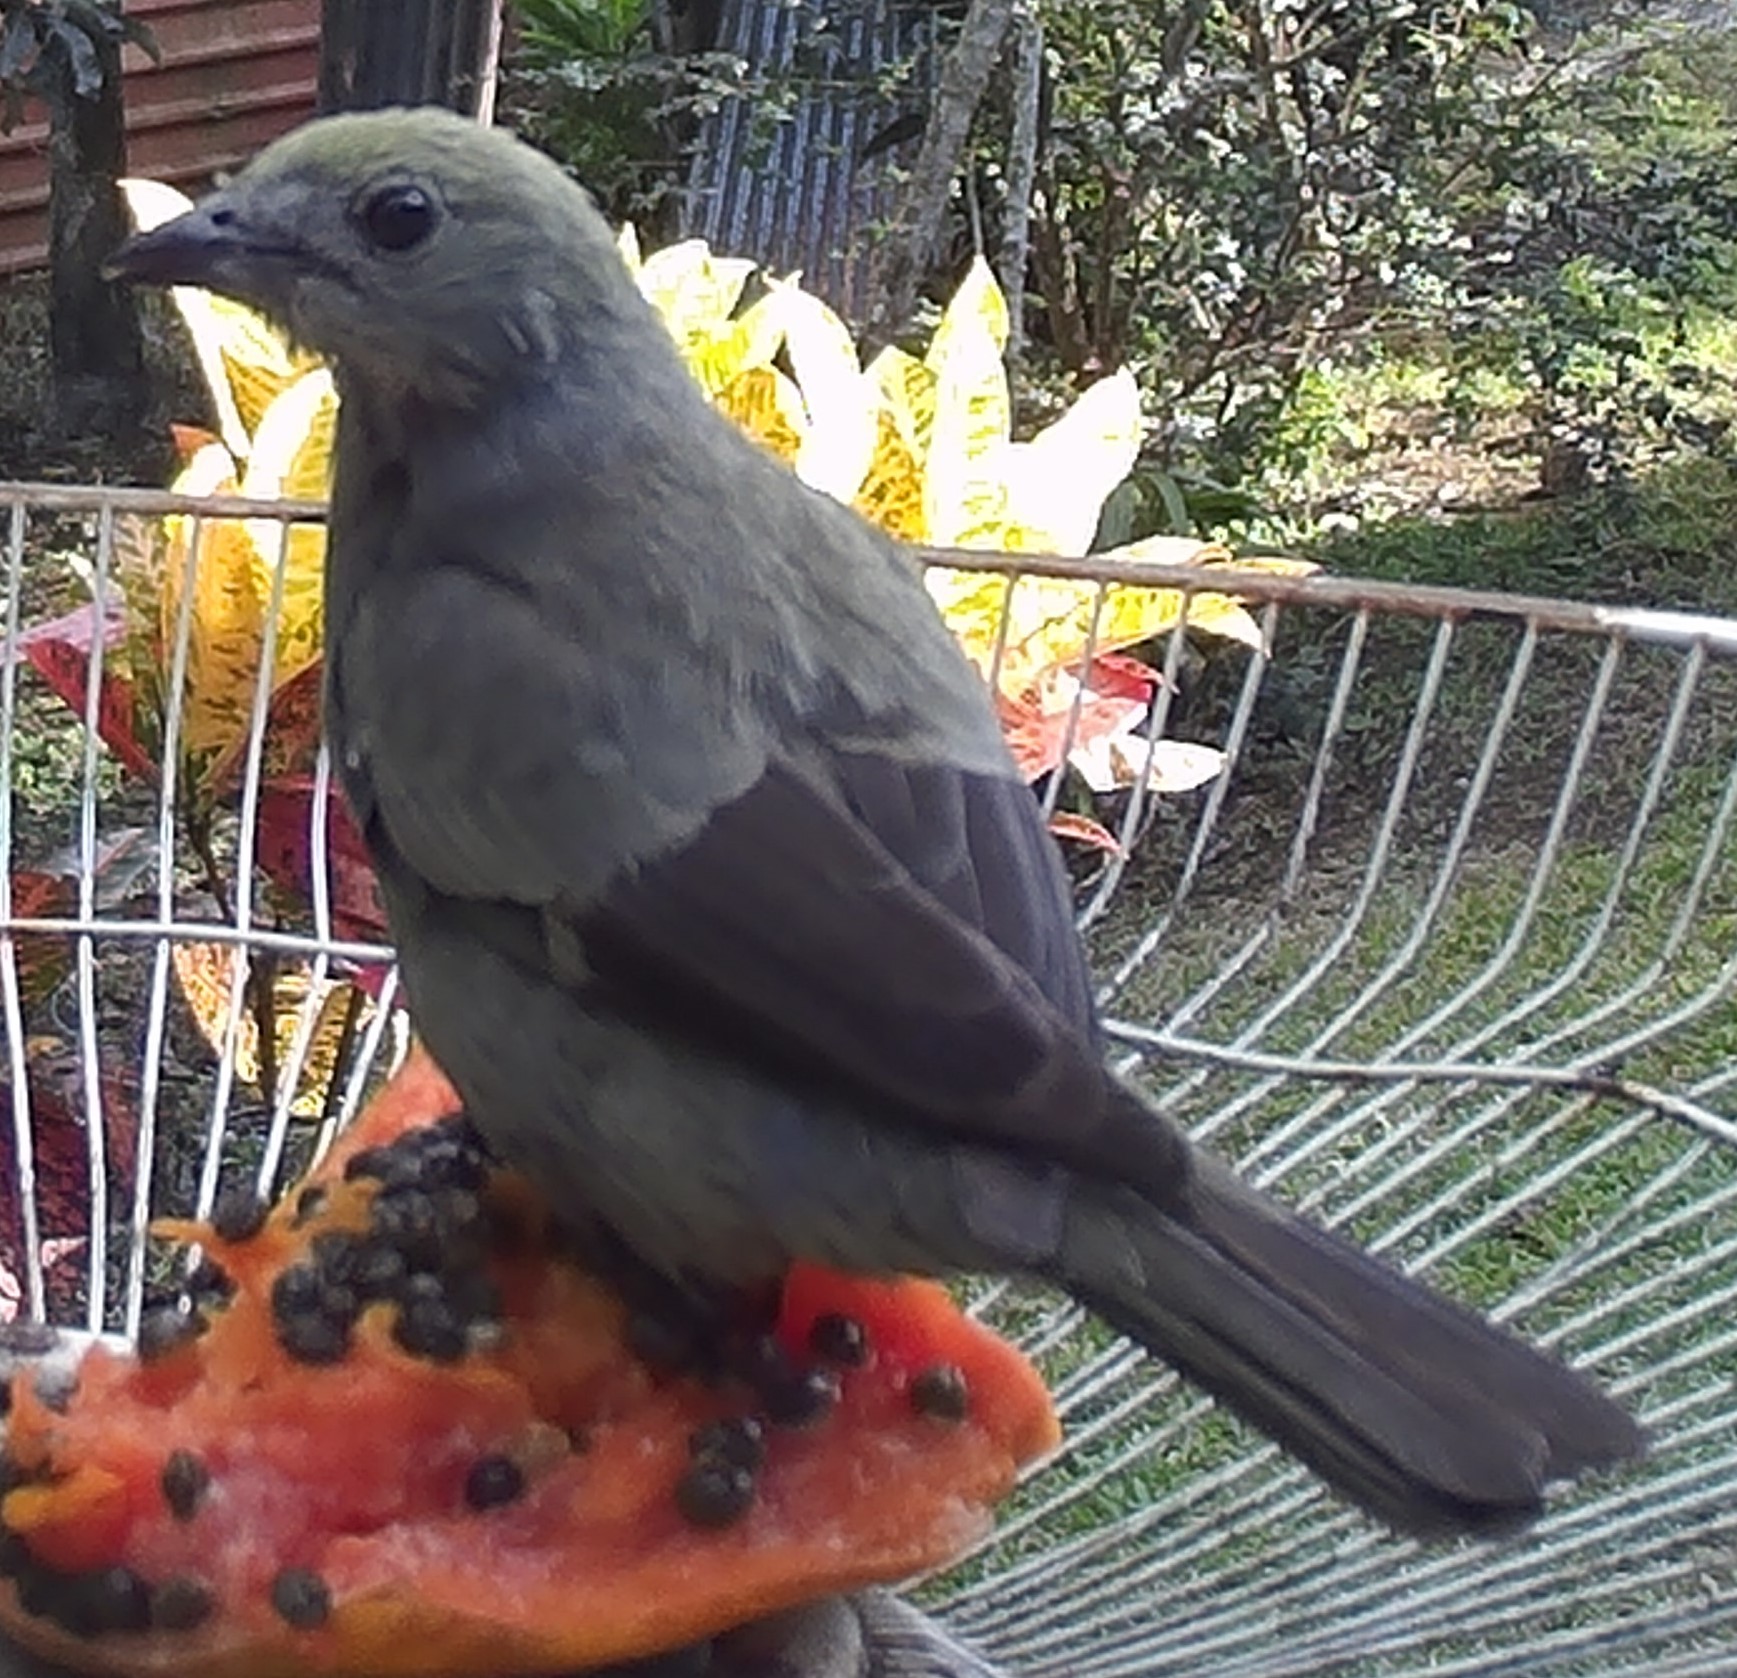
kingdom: Animalia
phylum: Chordata
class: Aves
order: Passeriformes
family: Thraupidae
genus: Thraupis
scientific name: Thraupis palmarum
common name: Palm tanager
